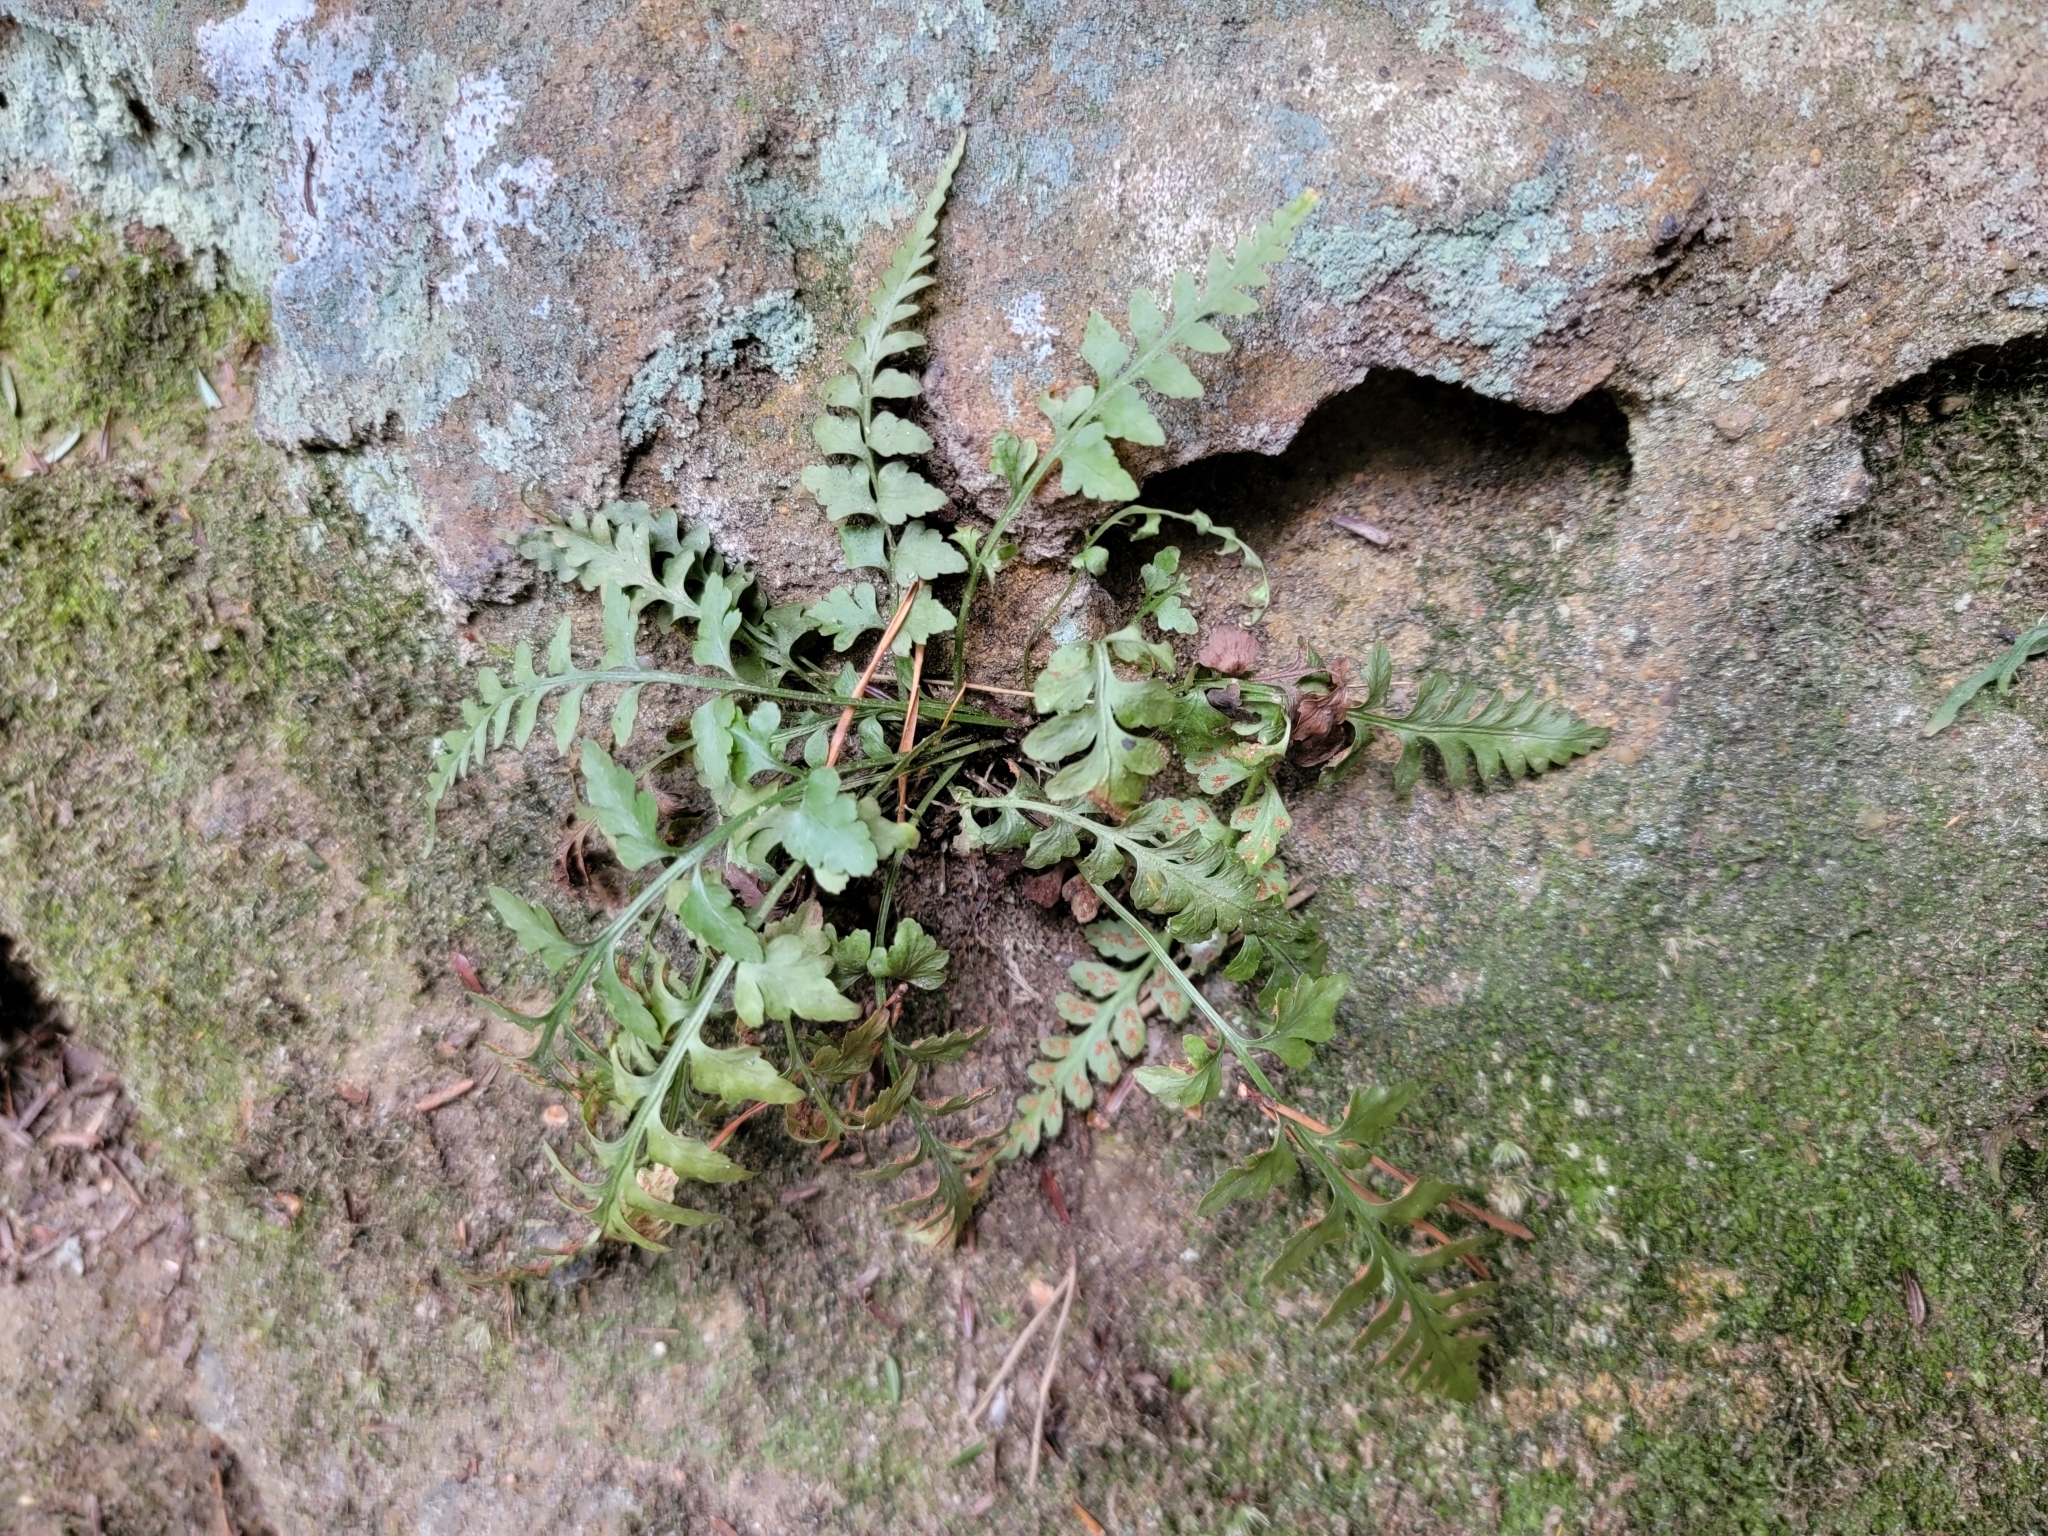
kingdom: Plantae
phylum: Tracheophyta
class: Polypodiopsida
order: Polypodiales
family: Aspleniaceae
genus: Asplenium
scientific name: Asplenium trudellii
